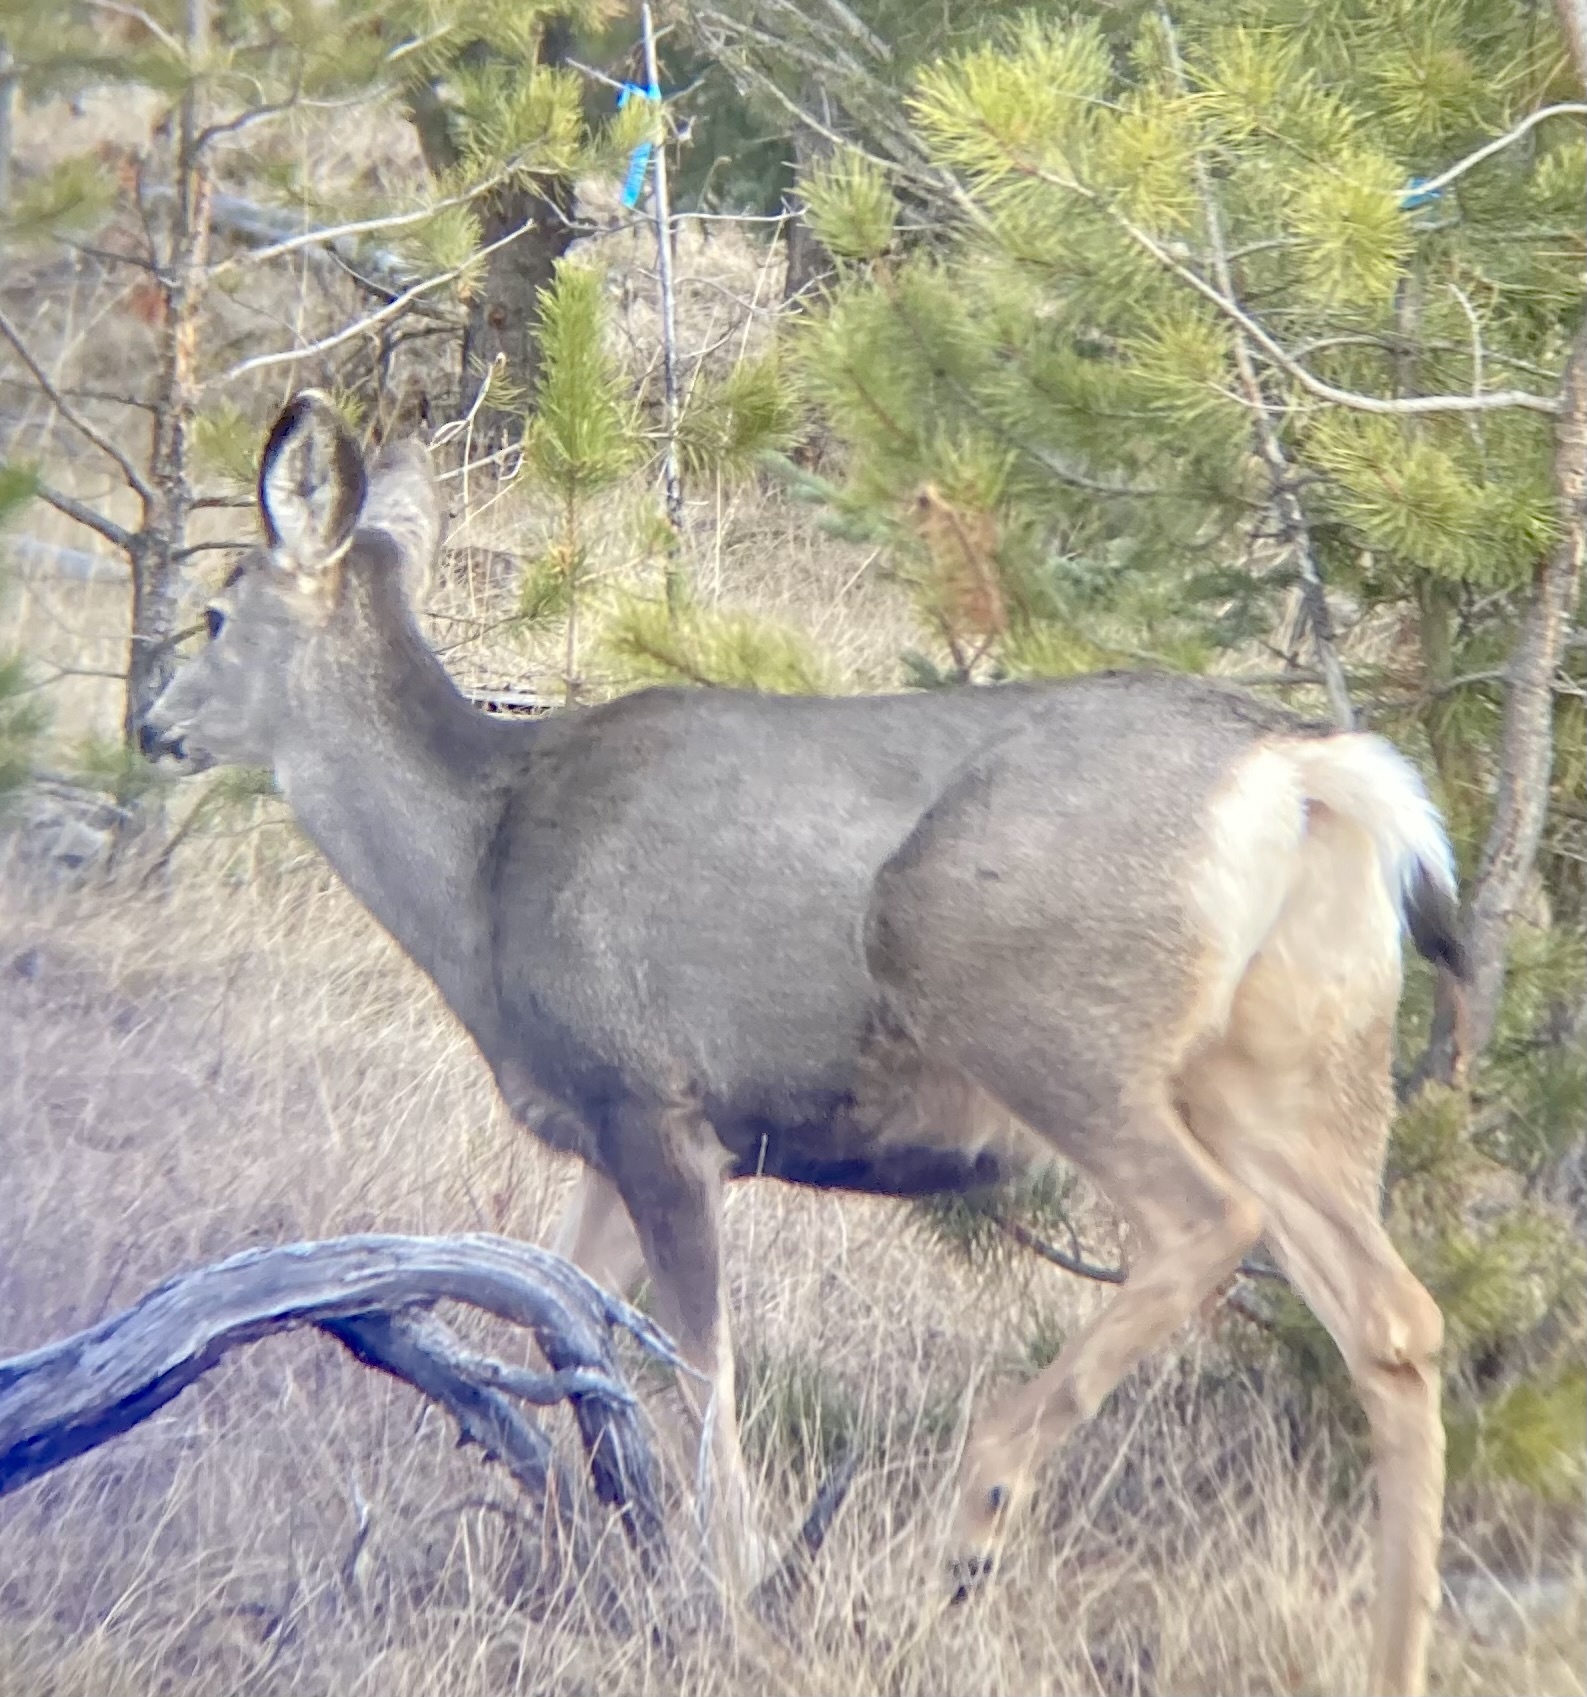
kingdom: Animalia
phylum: Chordata
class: Mammalia
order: Artiodactyla
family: Cervidae
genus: Odocoileus
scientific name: Odocoileus hemionus
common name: Mule deer
